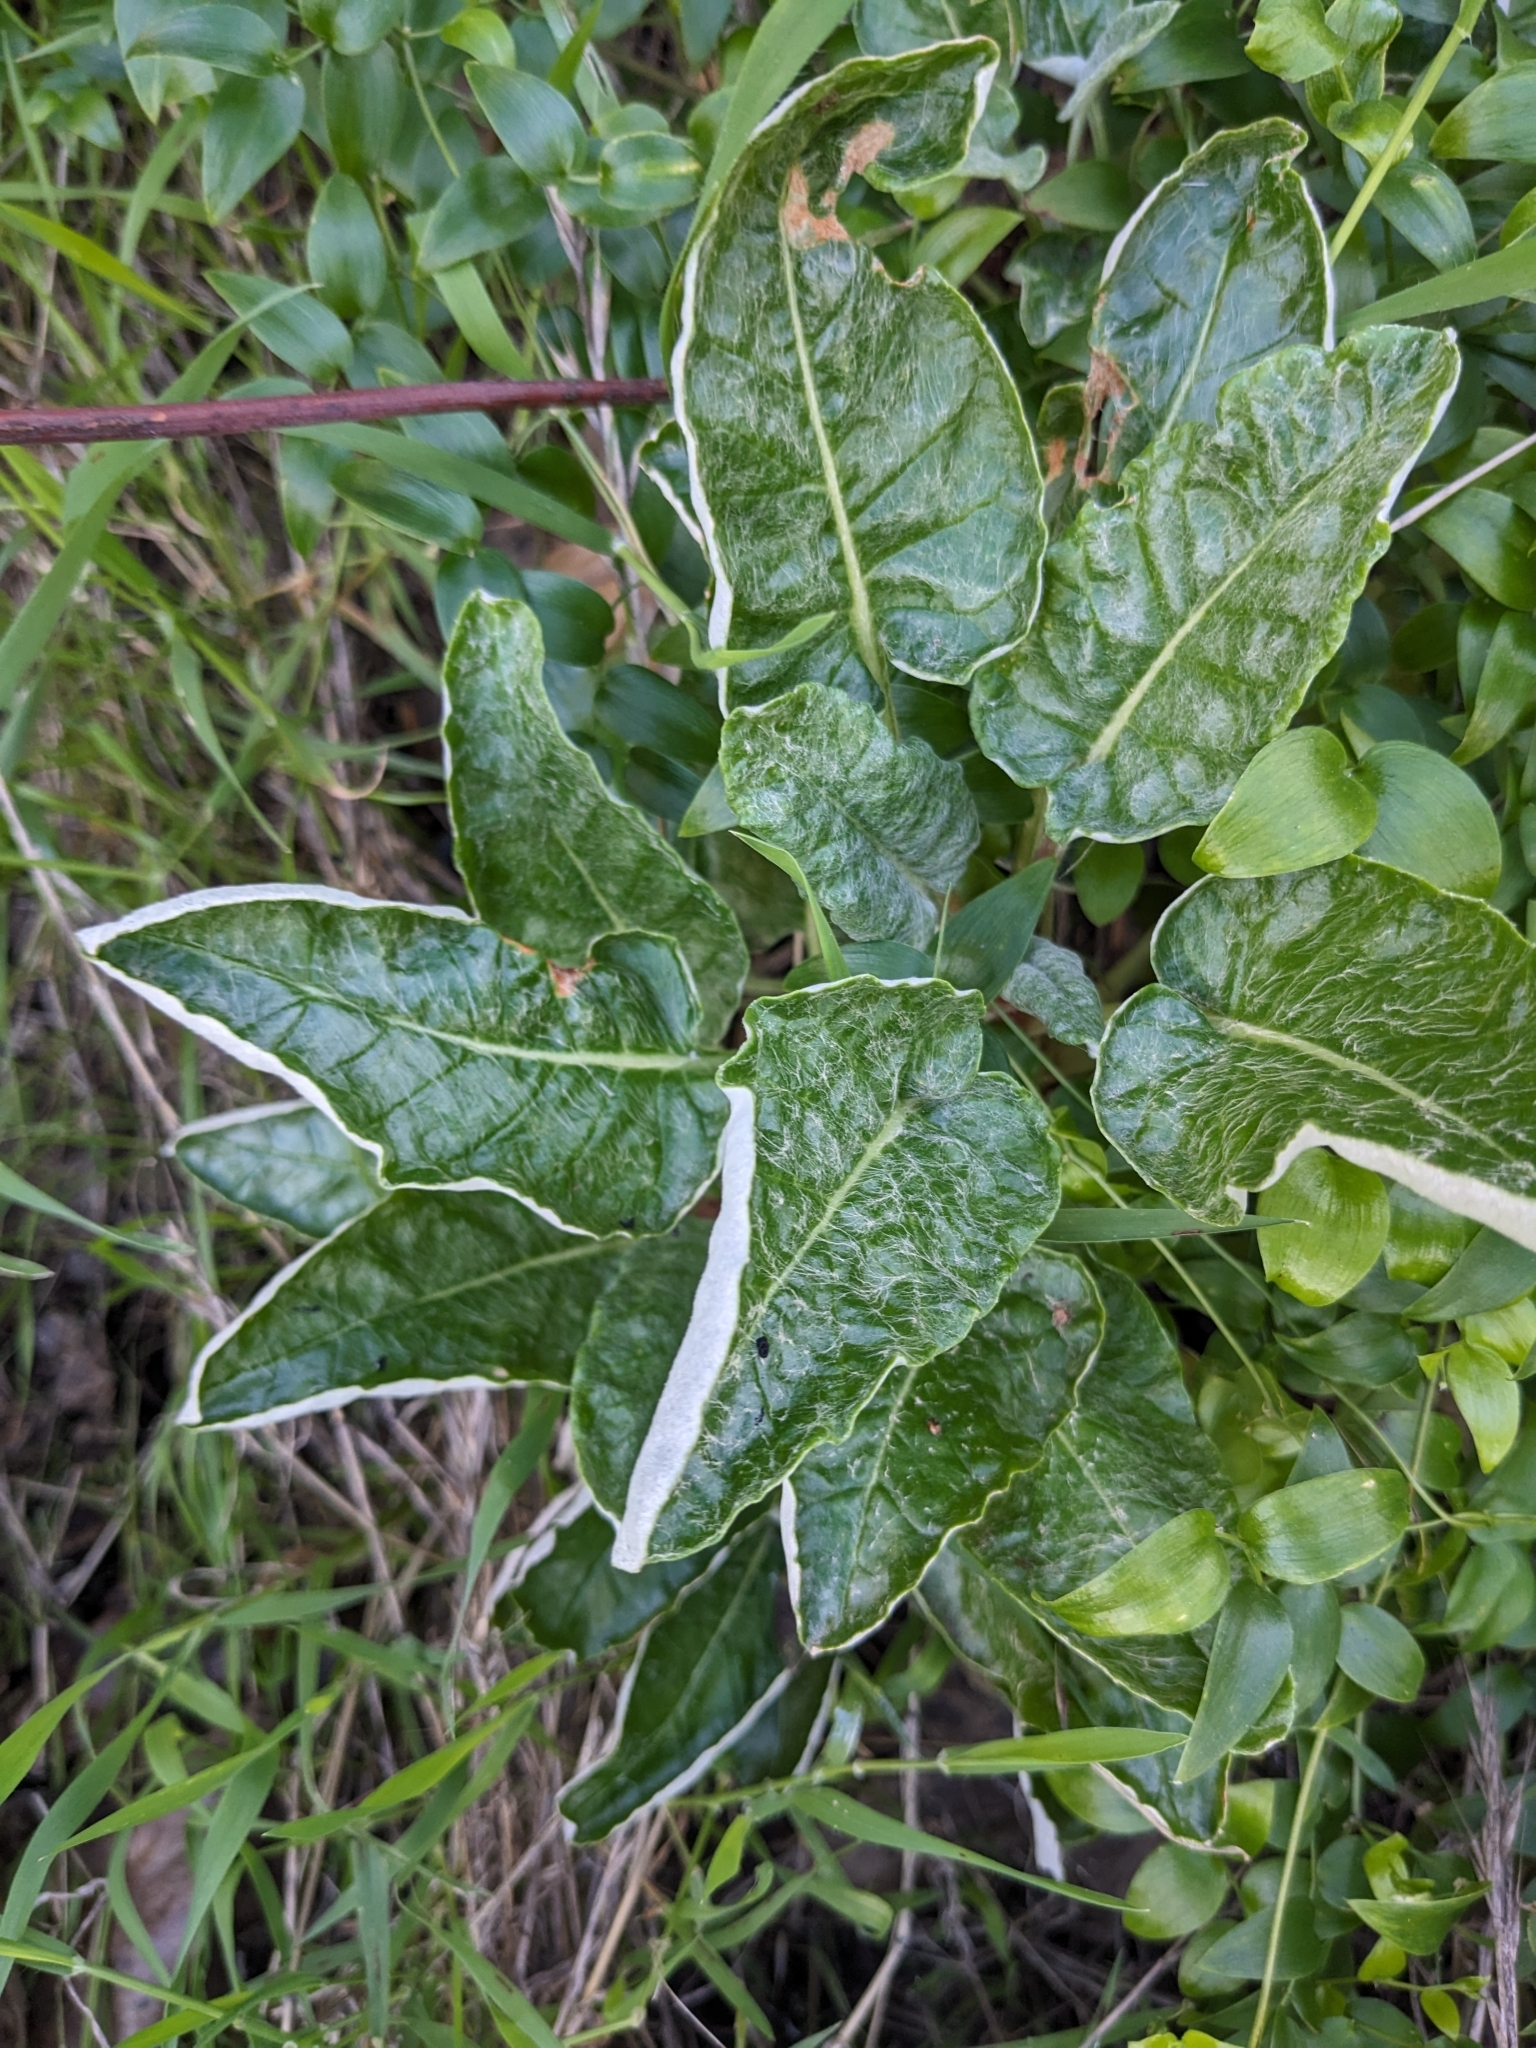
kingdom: Plantae
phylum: Tracheophyta
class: Magnoliopsida
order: Caryophyllales
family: Polygonaceae
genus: Eriogonum
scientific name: Eriogonum grande
